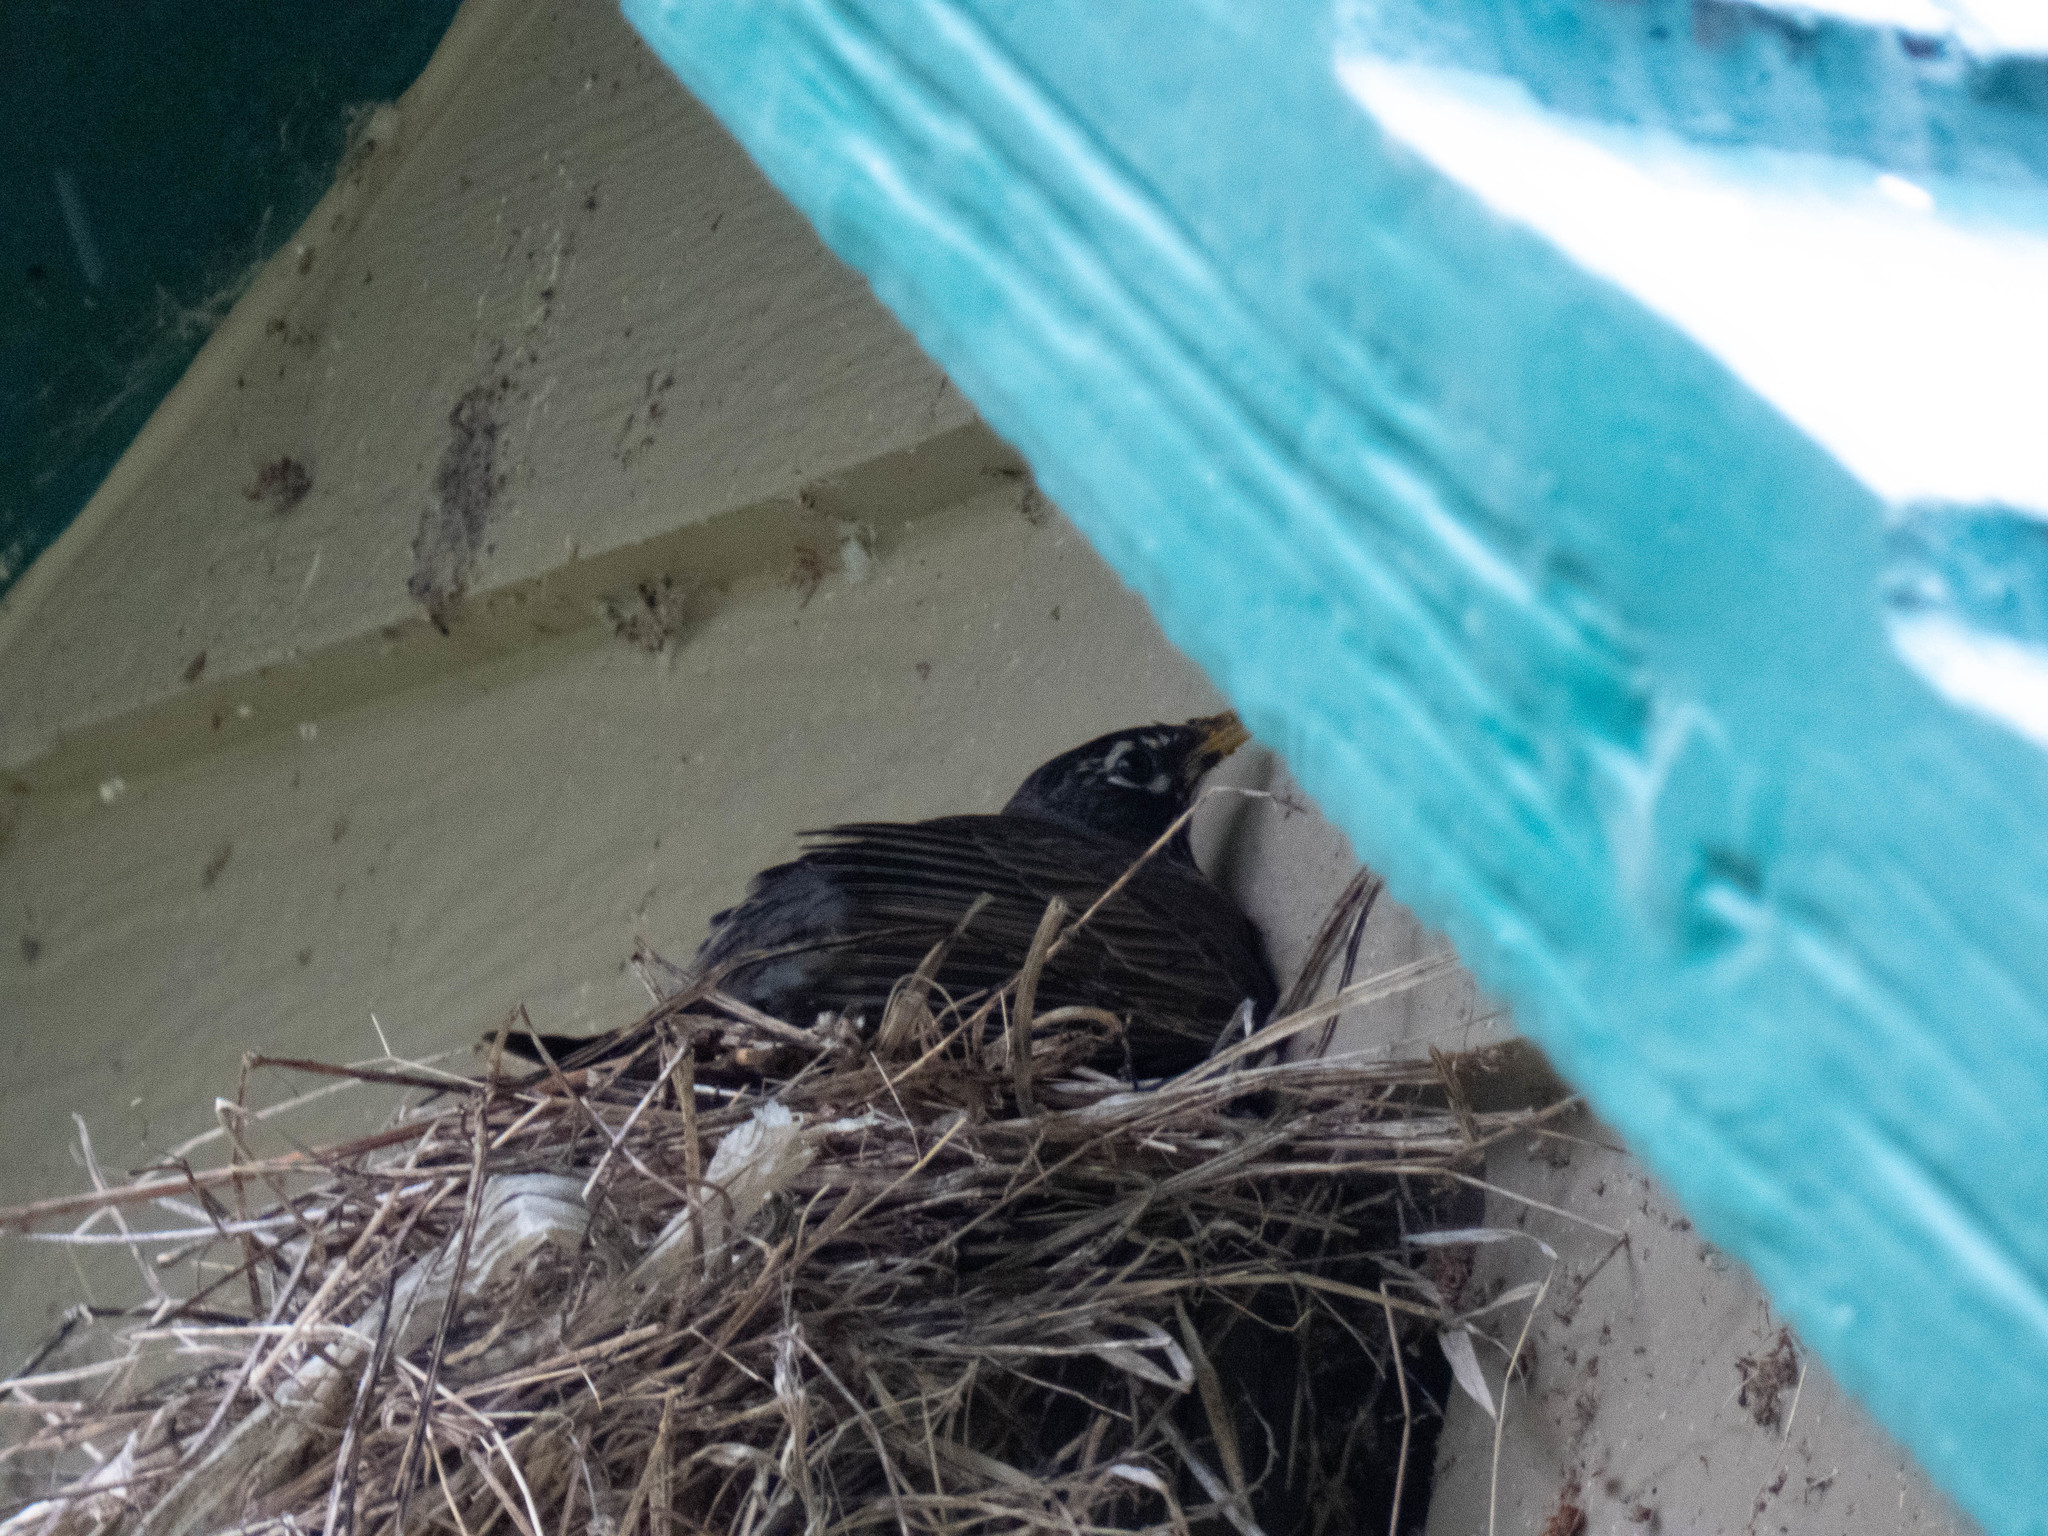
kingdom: Animalia
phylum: Chordata
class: Aves
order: Passeriformes
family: Turdidae
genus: Turdus
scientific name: Turdus migratorius
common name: American robin
